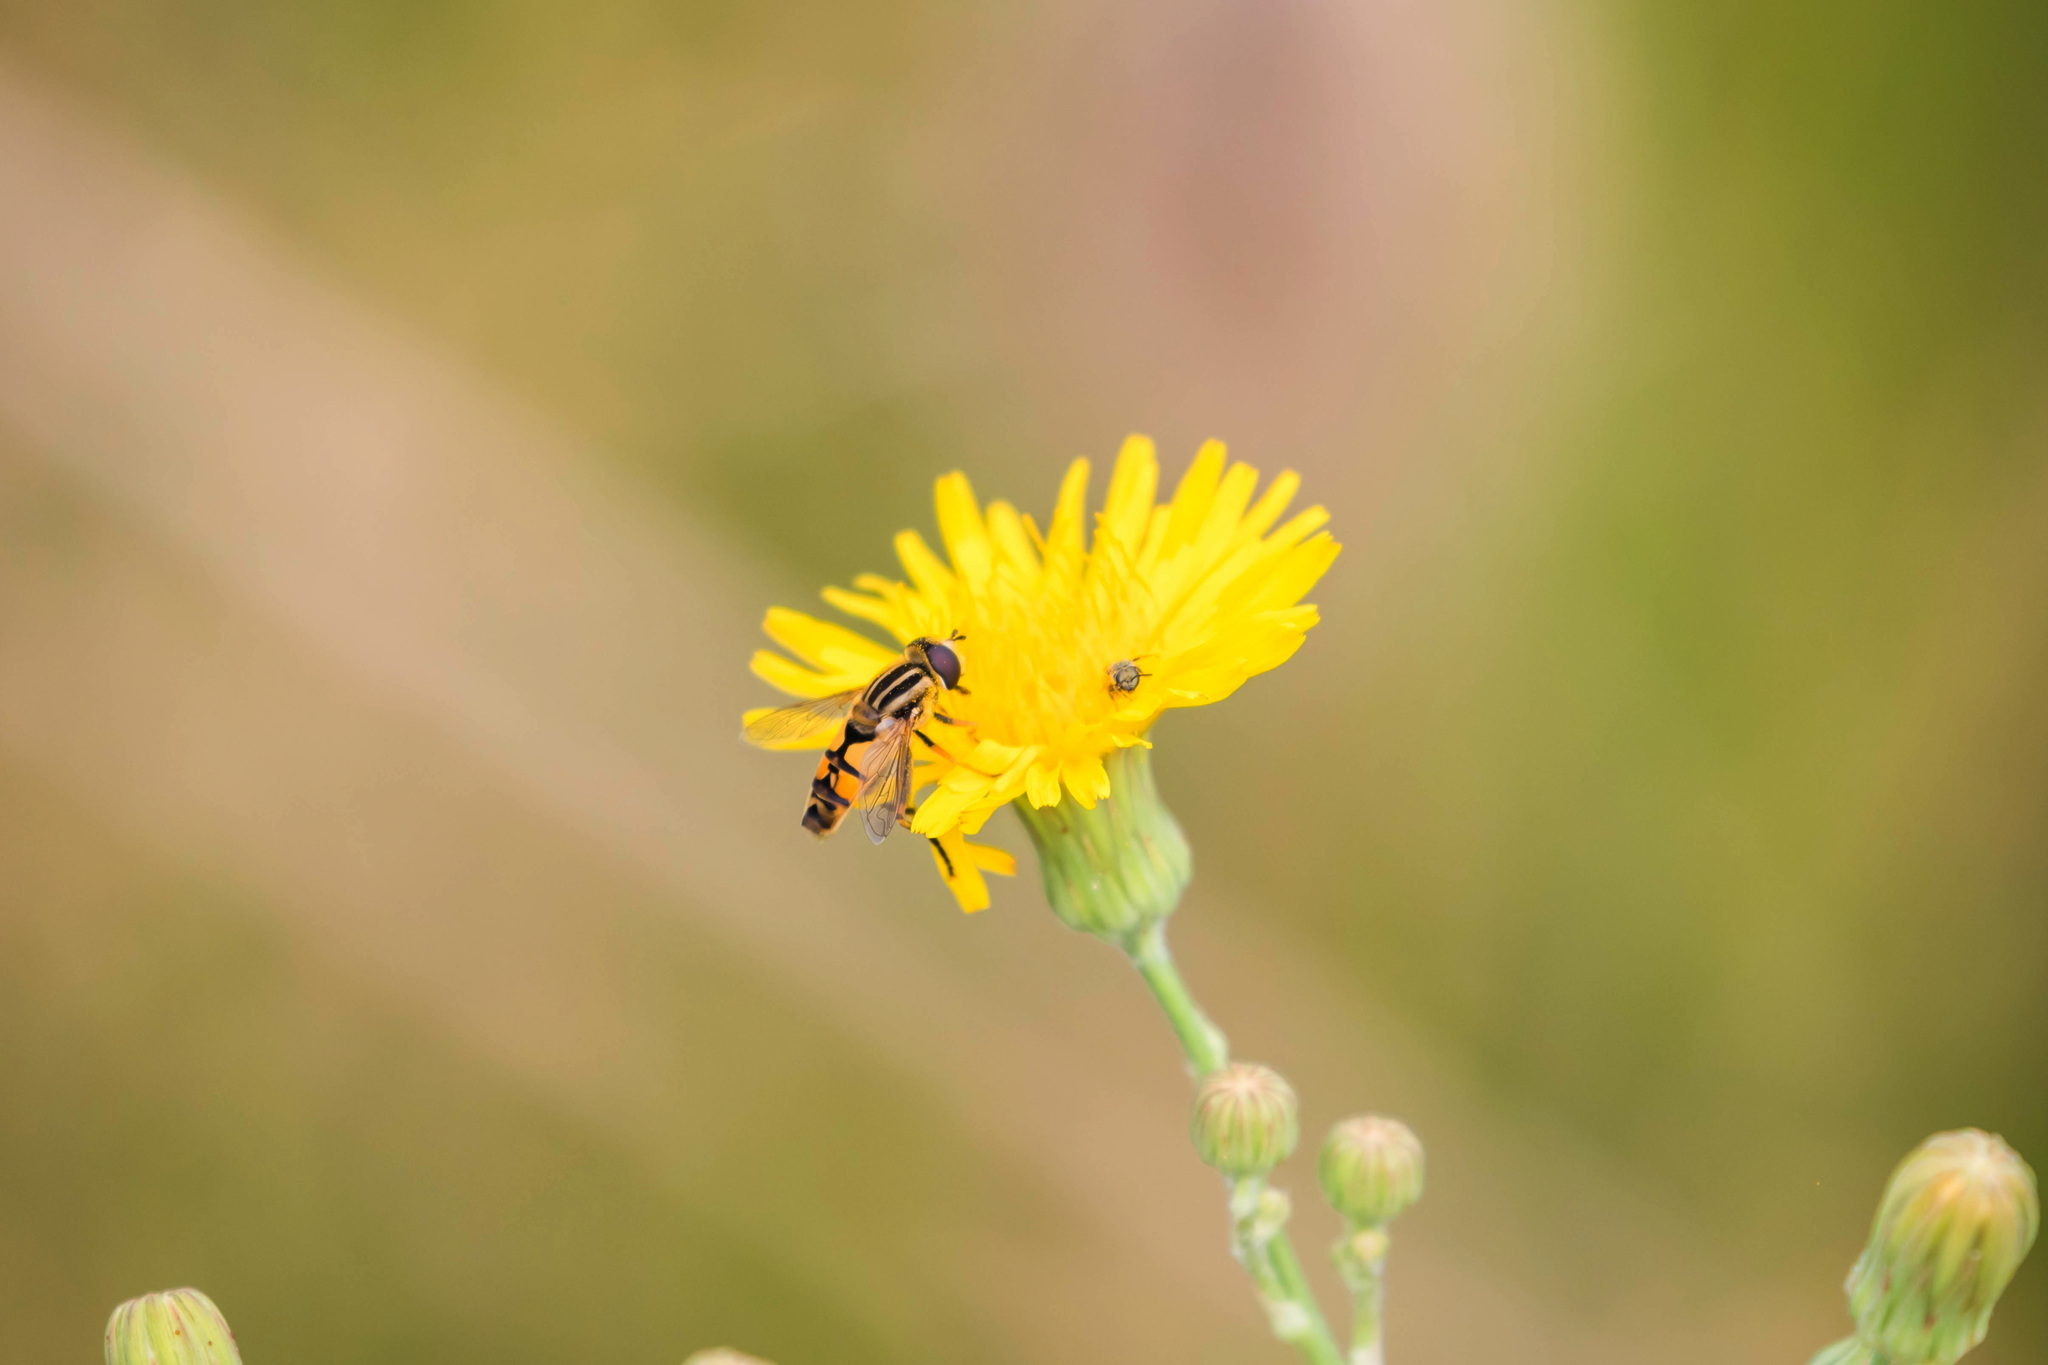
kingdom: Animalia
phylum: Arthropoda
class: Insecta
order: Diptera
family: Syrphidae
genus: Helophilus
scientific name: Helophilus latifrons
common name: Broad-headed marsh fly
